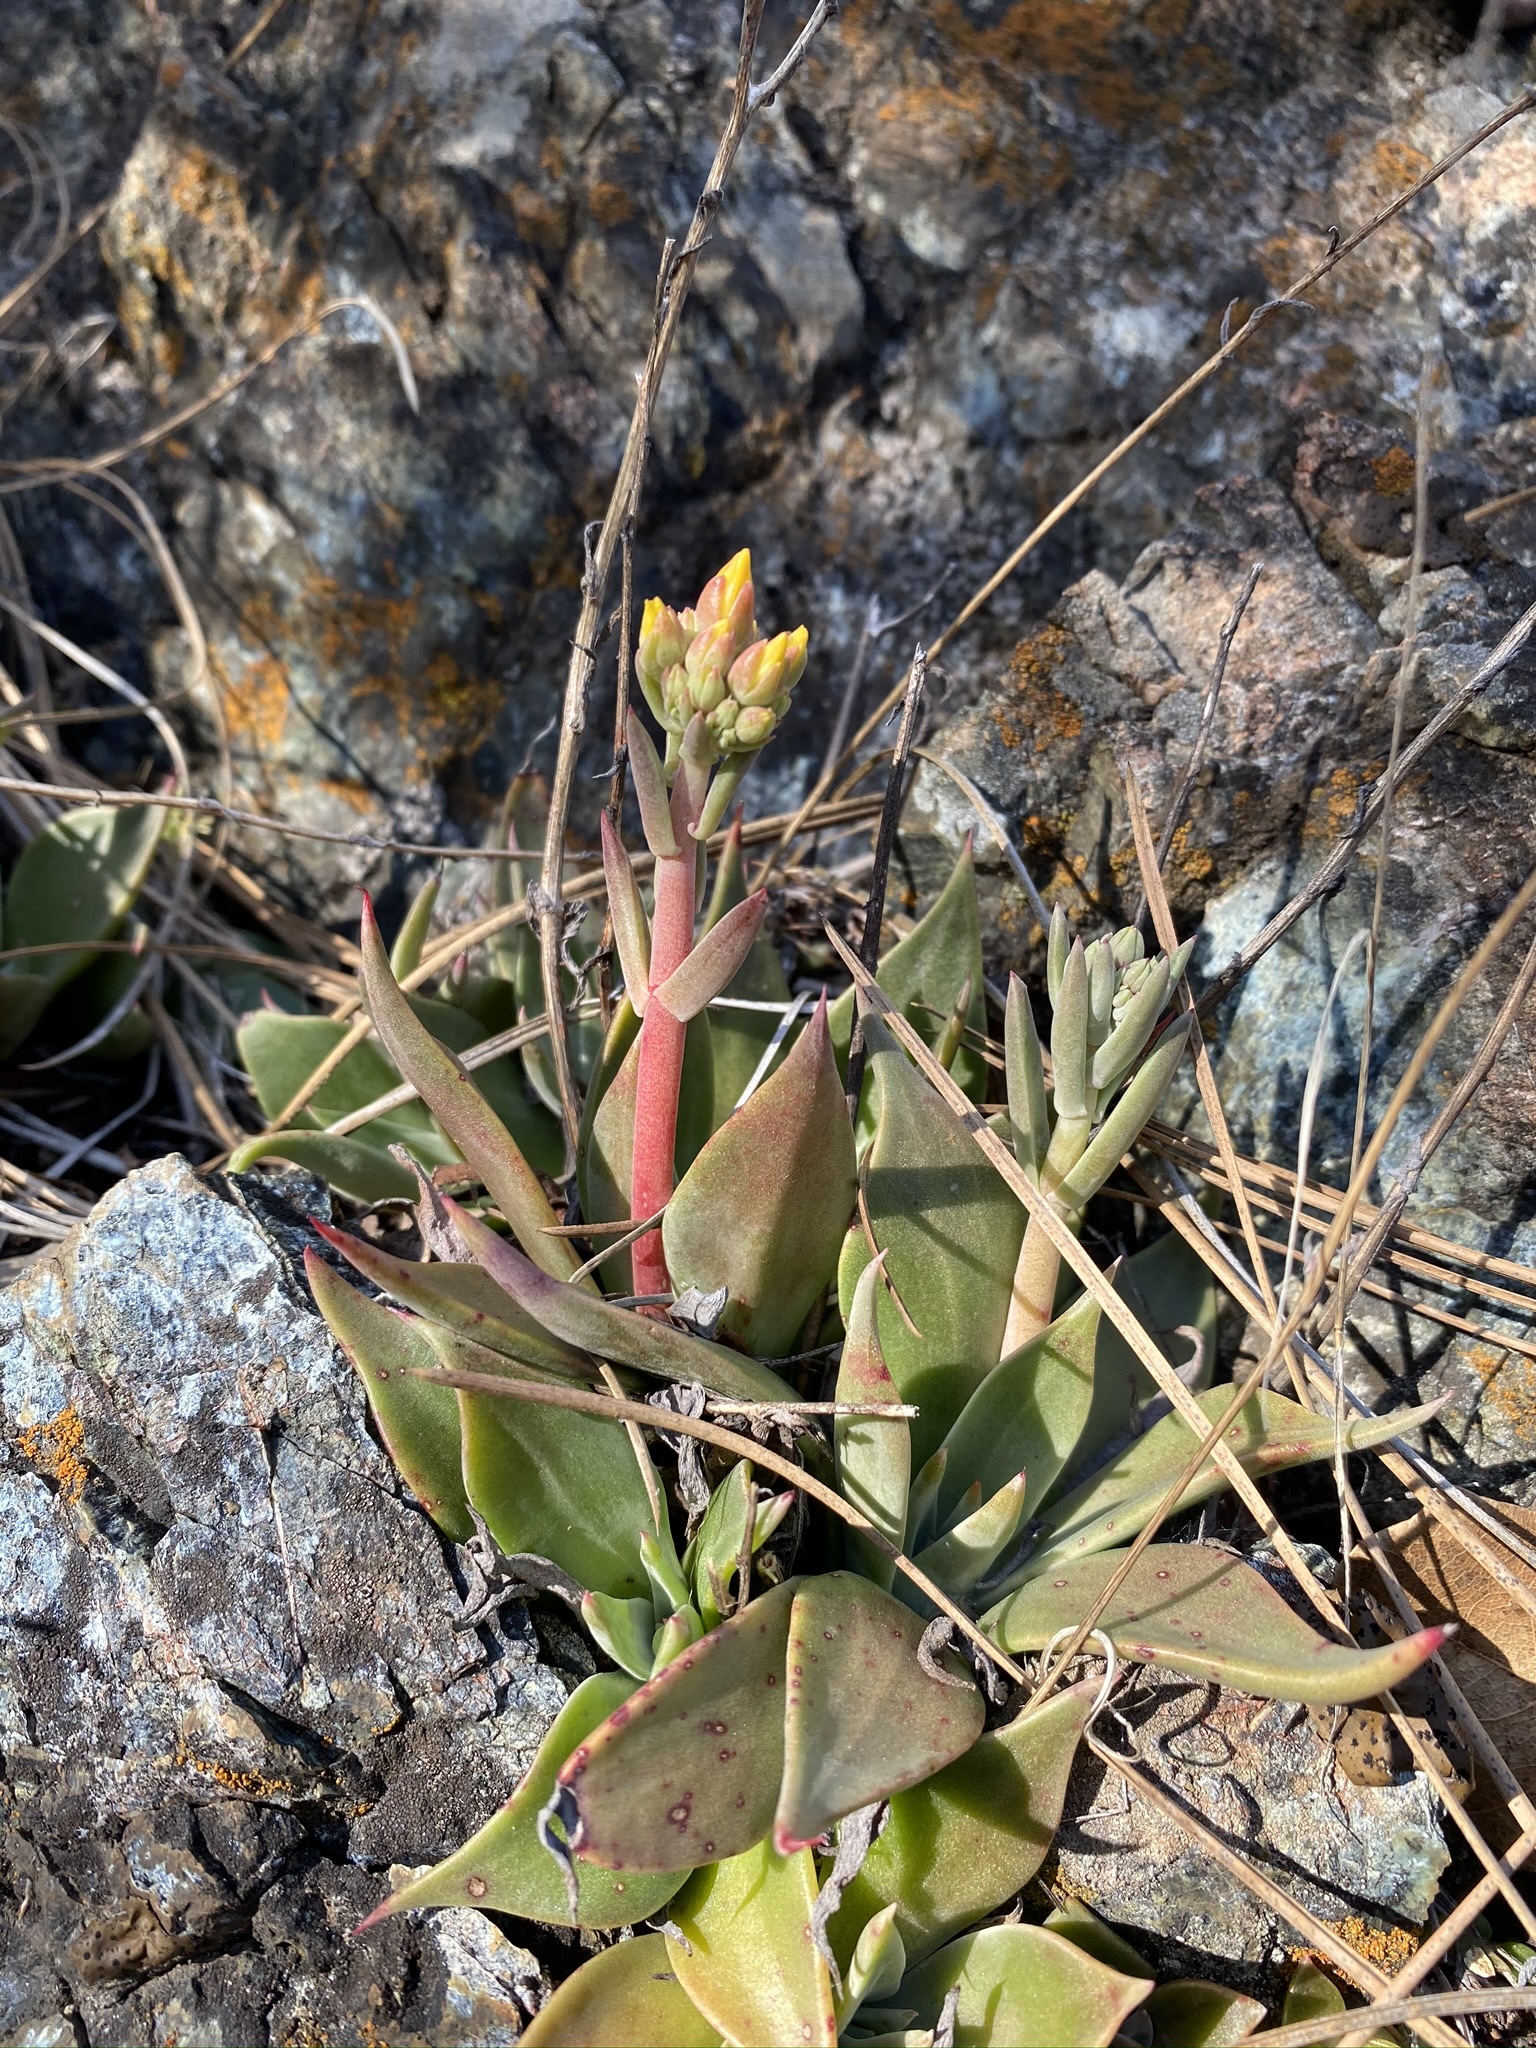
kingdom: Plantae
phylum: Tracheophyta
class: Magnoliopsida
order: Saxifragales
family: Crassulaceae
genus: Dudleya
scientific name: Dudleya cymosa
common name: Canyon dudleya
